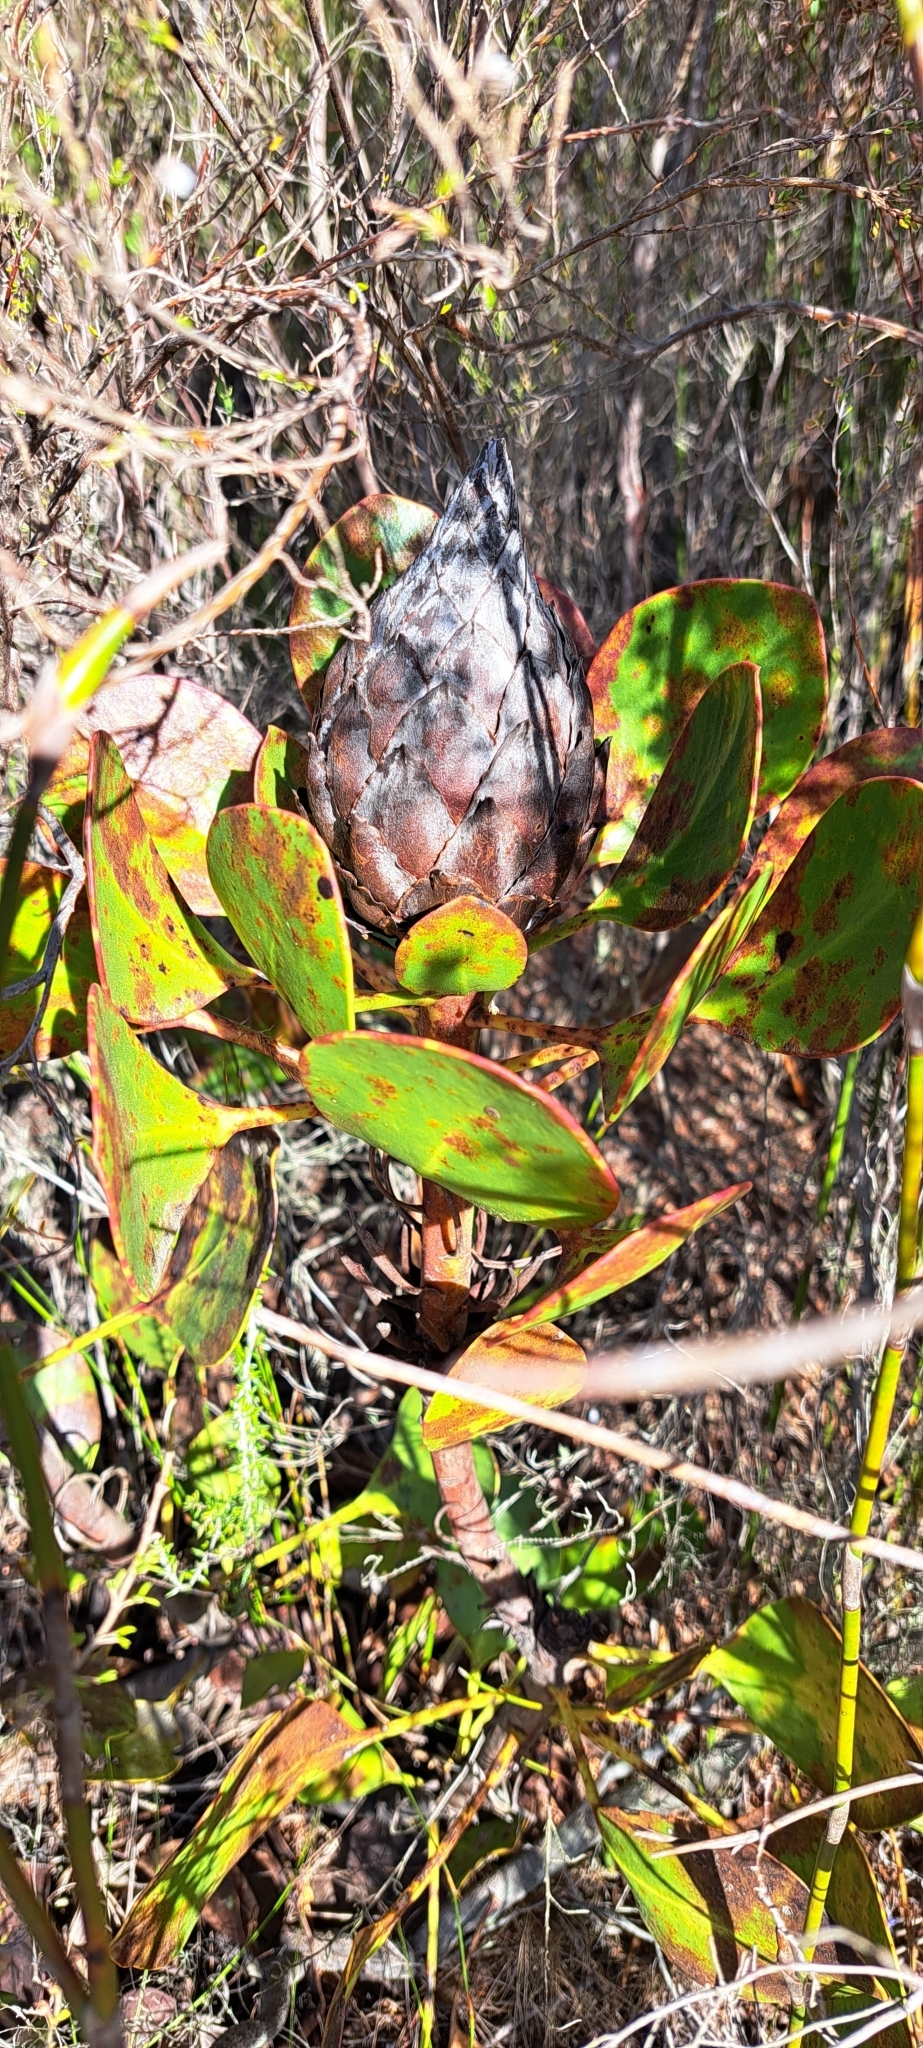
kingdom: Plantae
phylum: Tracheophyta
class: Magnoliopsida
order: Proteales
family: Proteaceae
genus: Protea
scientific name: Protea cynaroides
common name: King protea
